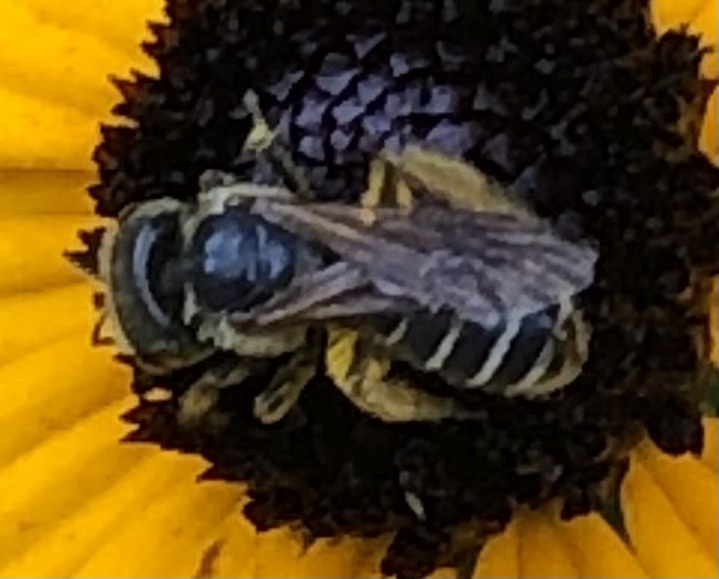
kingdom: Animalia
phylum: Arthropoda
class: Insecta
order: Hymenoptera
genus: Odontalictus
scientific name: Odontalictus
